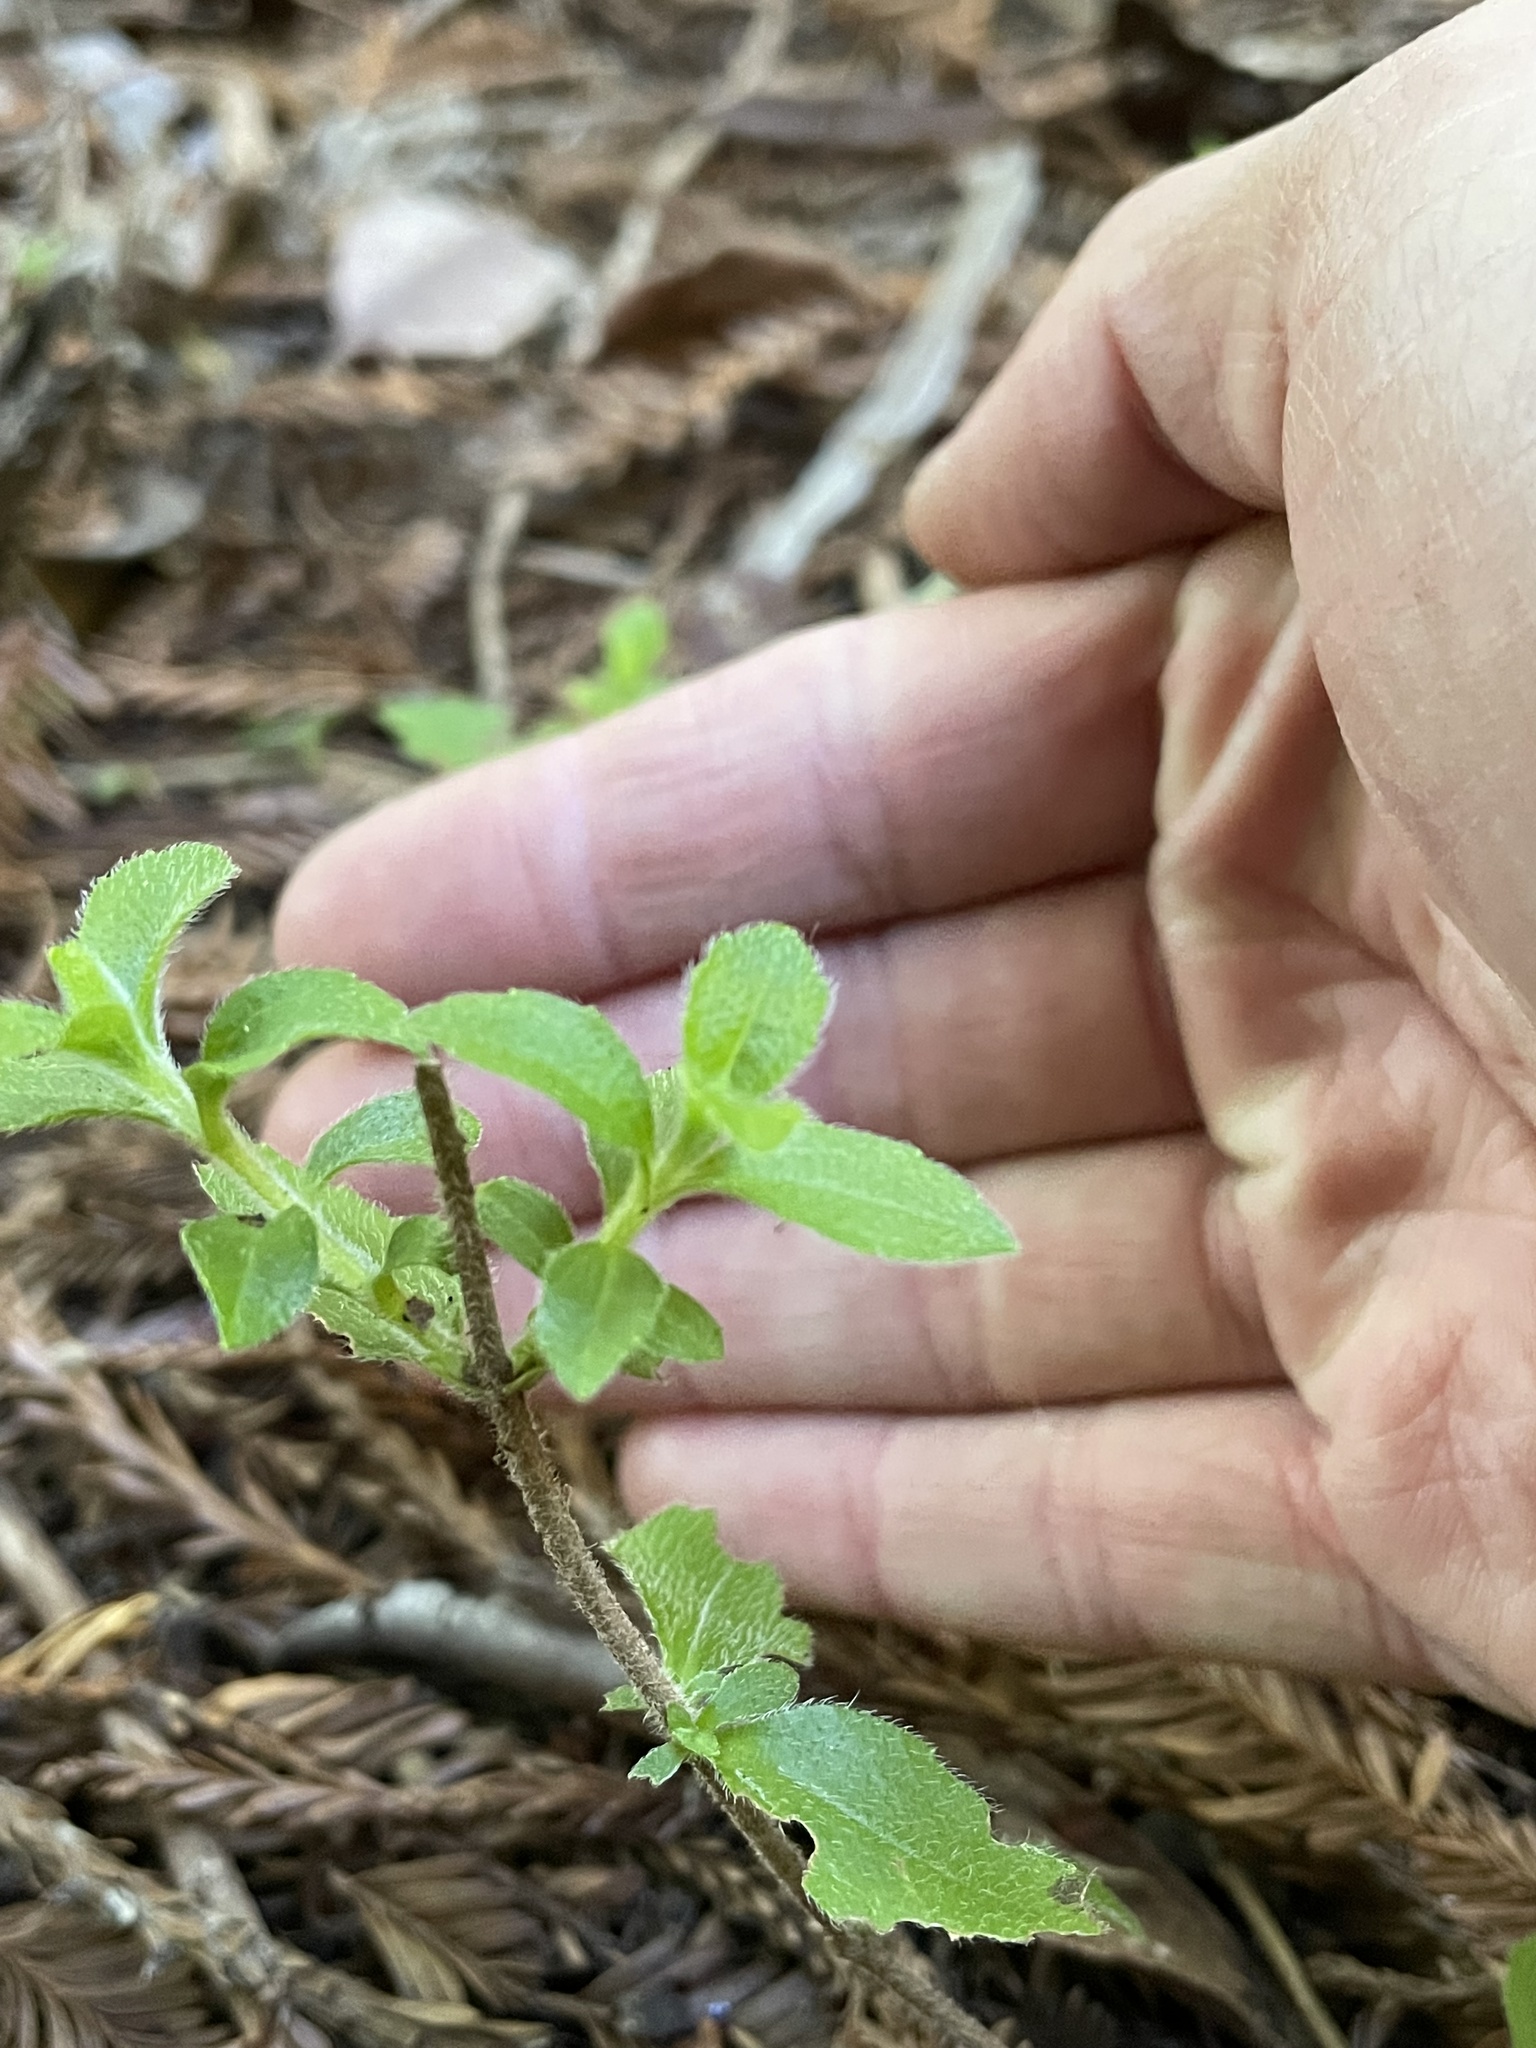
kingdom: Plantae
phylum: Tracheophyta
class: Magnoliopsida
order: Cornales
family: Hydrangeaceae
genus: Whipplea
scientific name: Whipplea modesta
